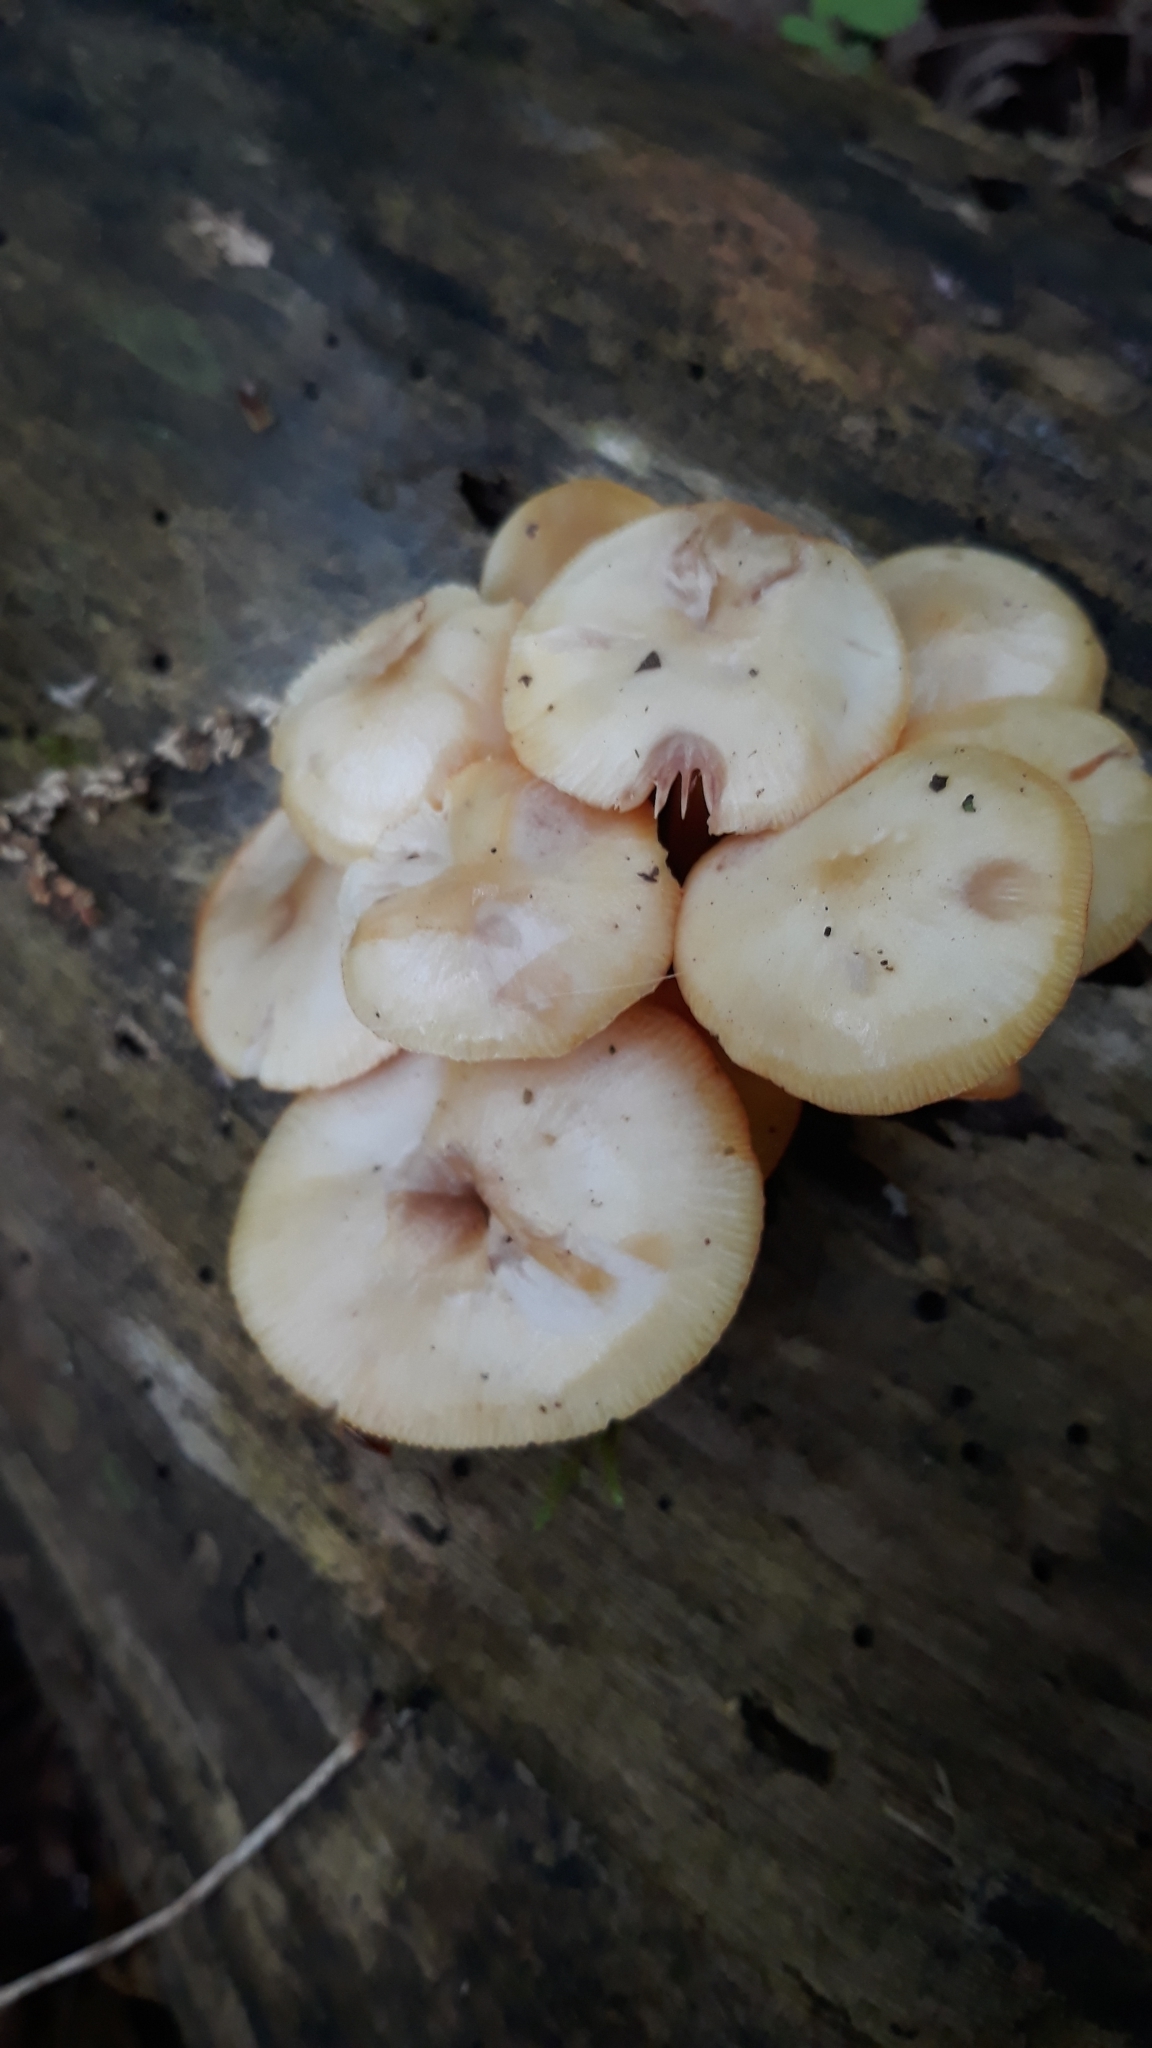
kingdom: Fungi
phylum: Basidiomycota
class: Agaricomycetes
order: Agaricales
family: Mycenaceae
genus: Mycena
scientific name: Mycena leaiana
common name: Orange mycena
